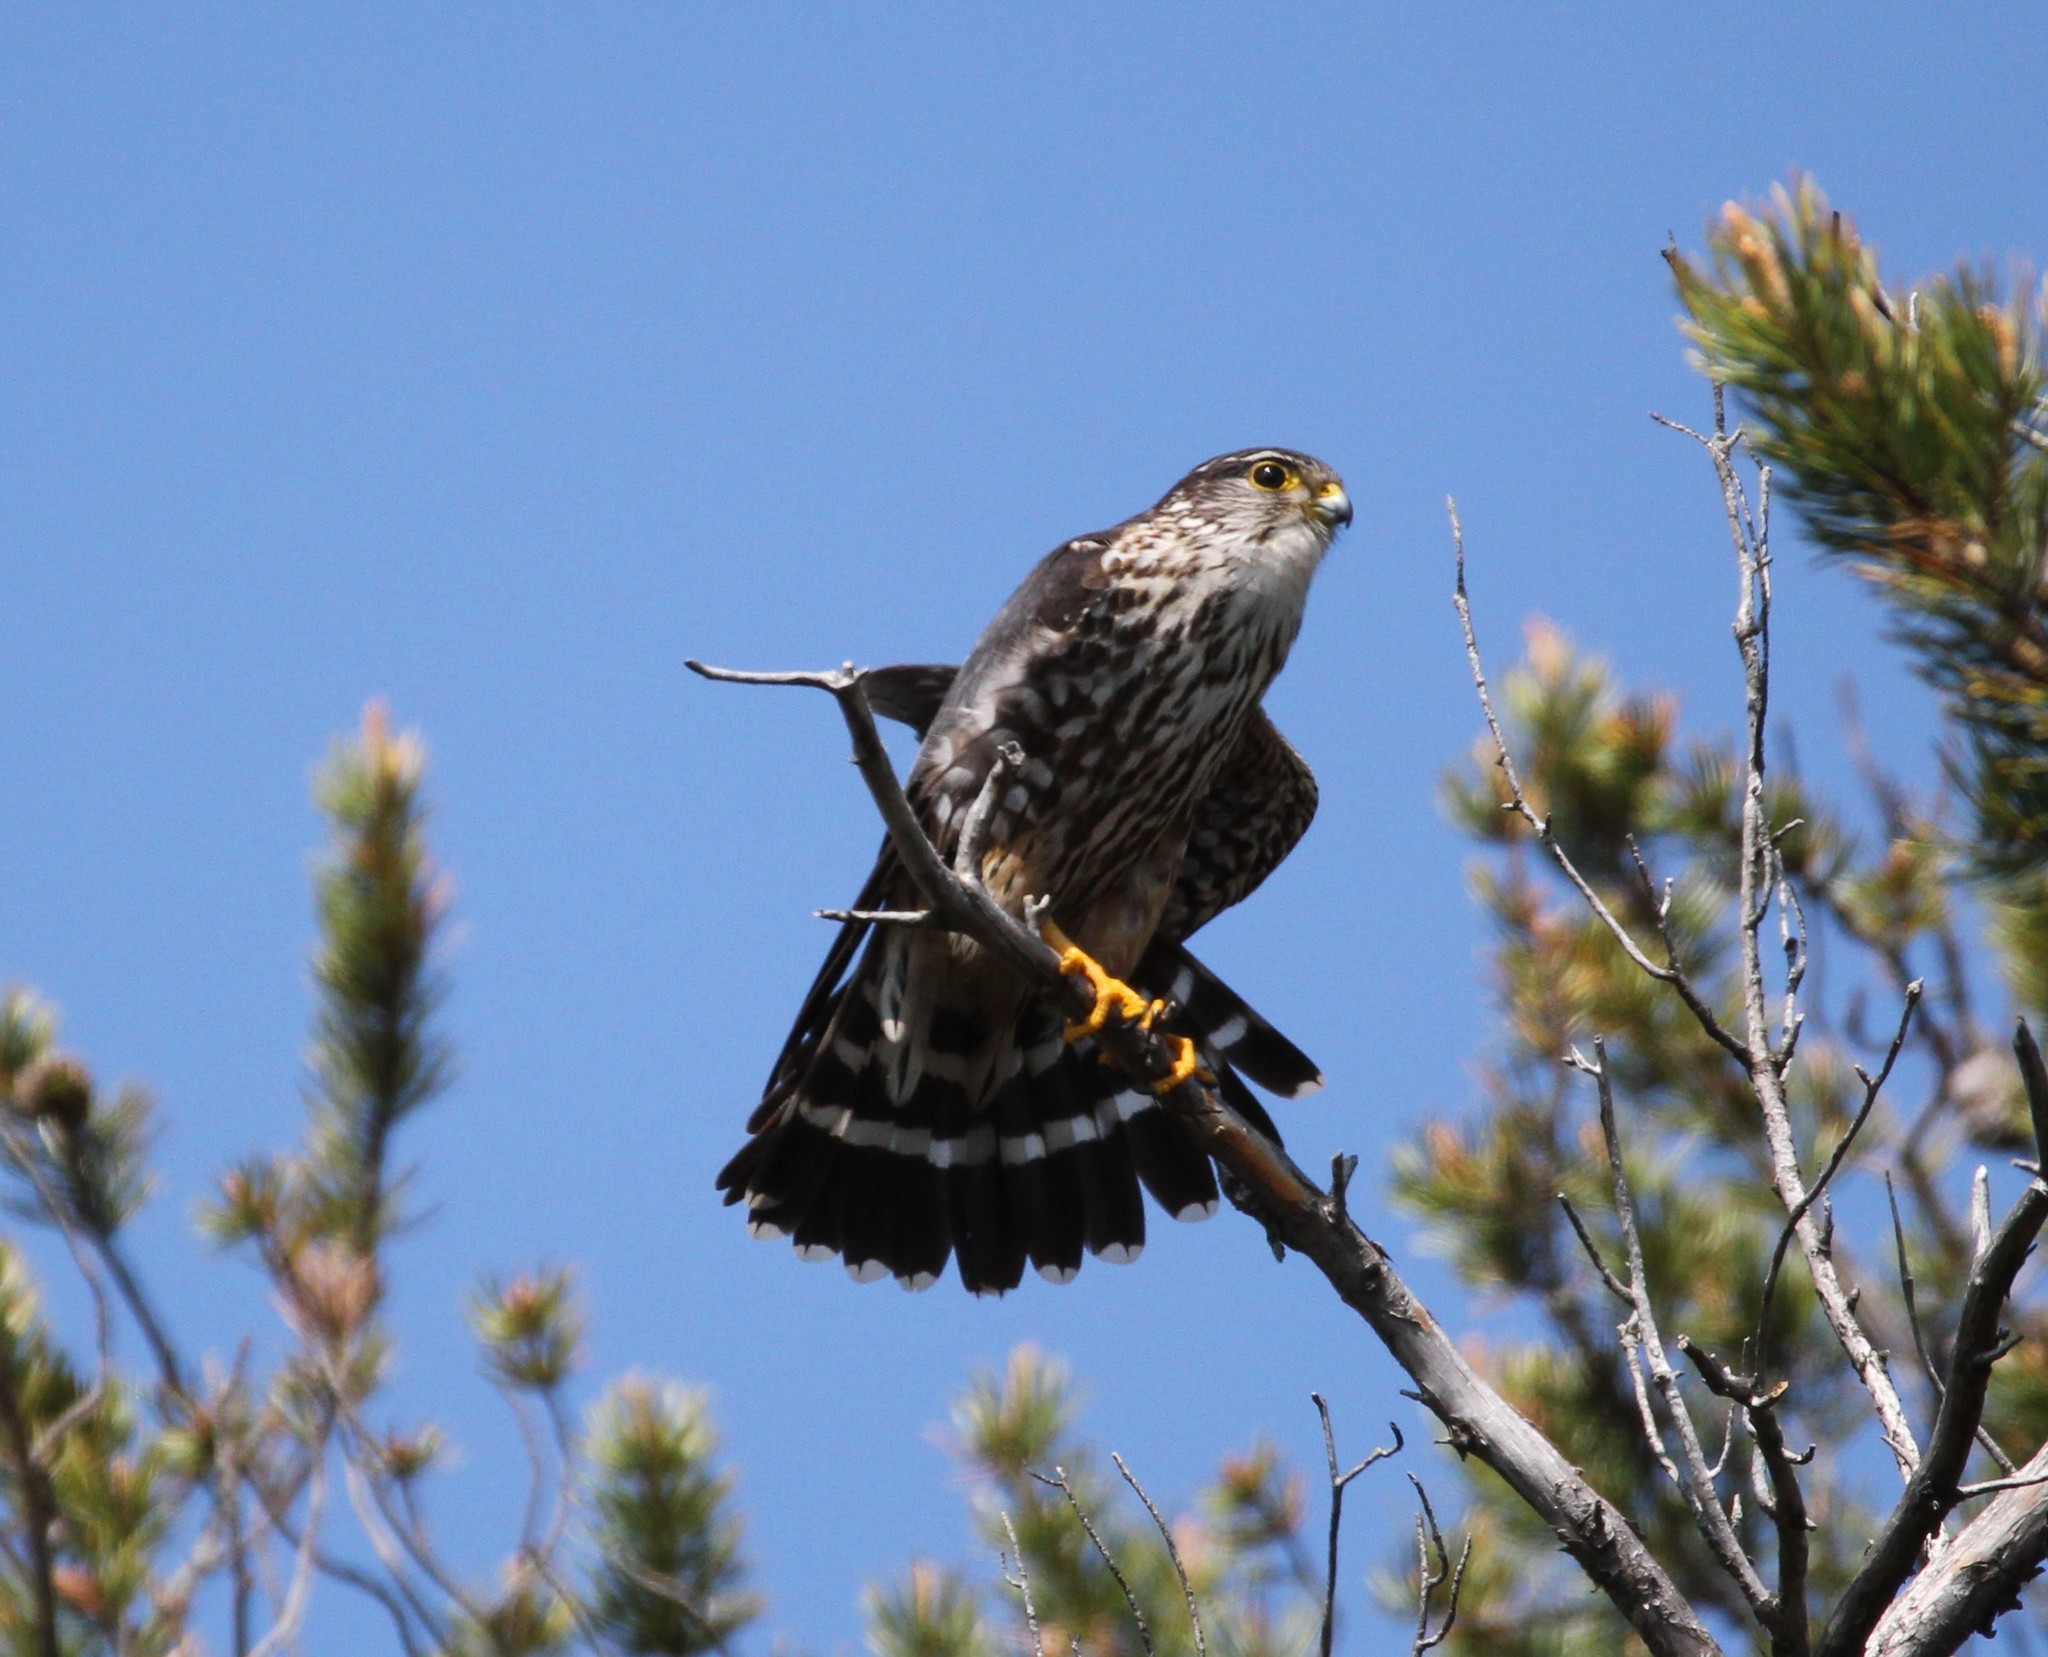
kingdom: Animalia
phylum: Chordata
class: Aves
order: Falconiformes
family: Falconidae
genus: Falco
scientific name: Falco columbarius
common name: Merlin
